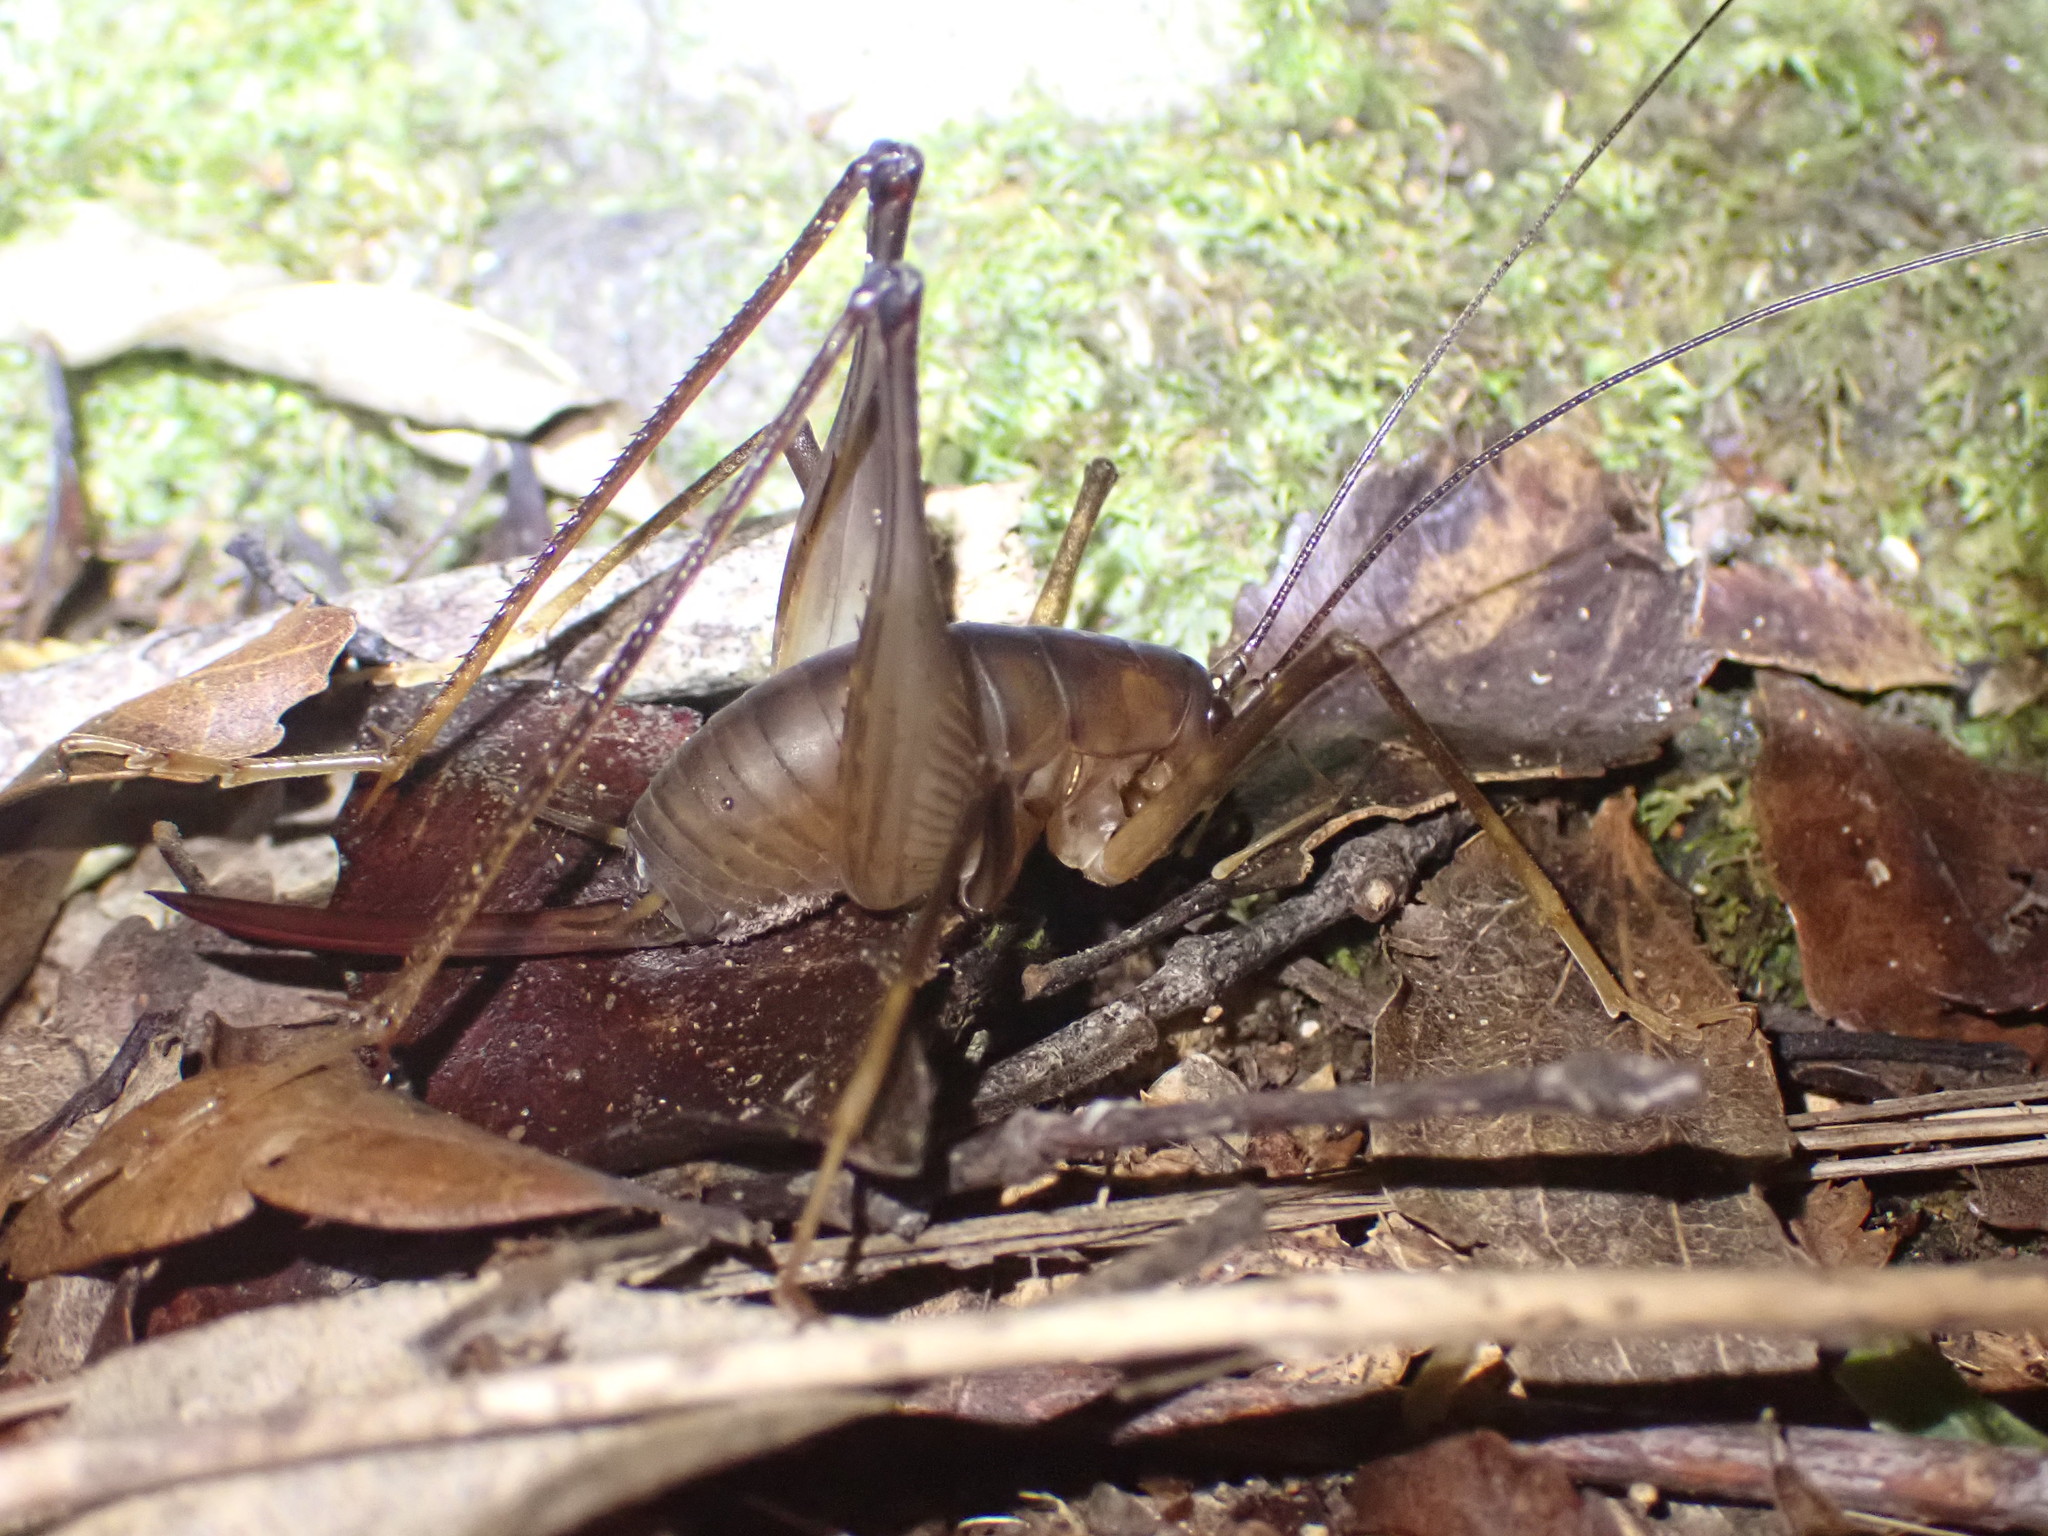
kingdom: Animalia
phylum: Arthropoda
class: Insecta
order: Orthoptera
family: Rhaphidophoridae
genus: Pachyrhamma
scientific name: Pachyrhamma fusca
